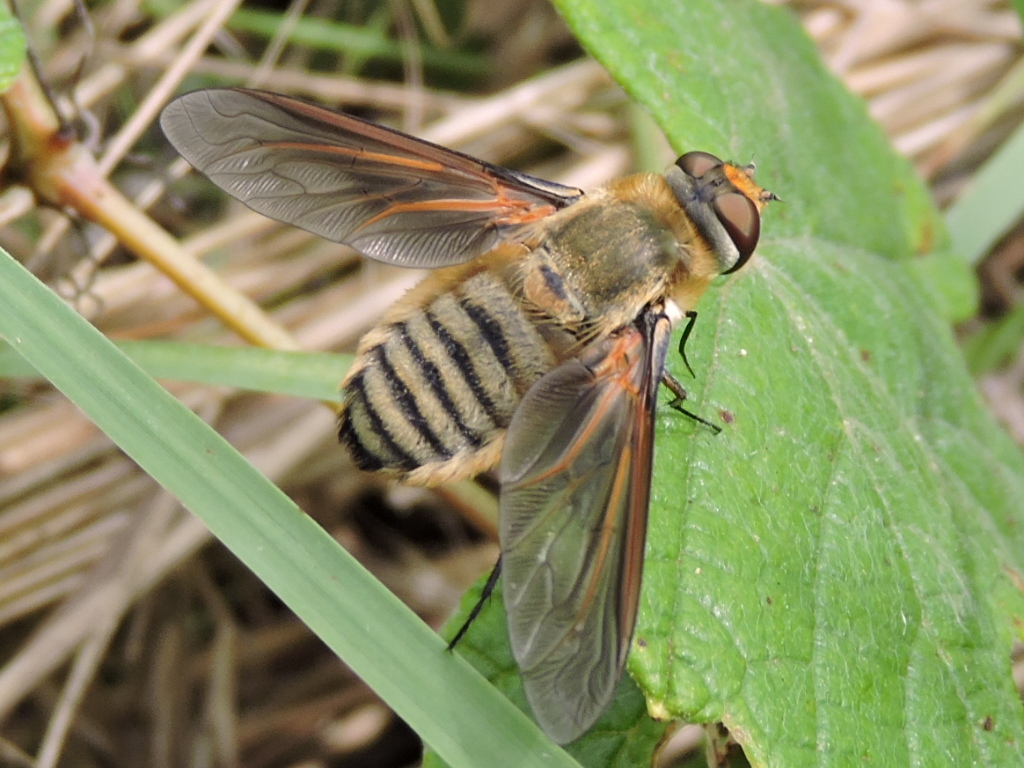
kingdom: Animalia
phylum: Arthropoda
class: Insecta
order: Diptera
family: Bombyliidae
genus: Poecilanthrax
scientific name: Poecilanthrax lucifer
